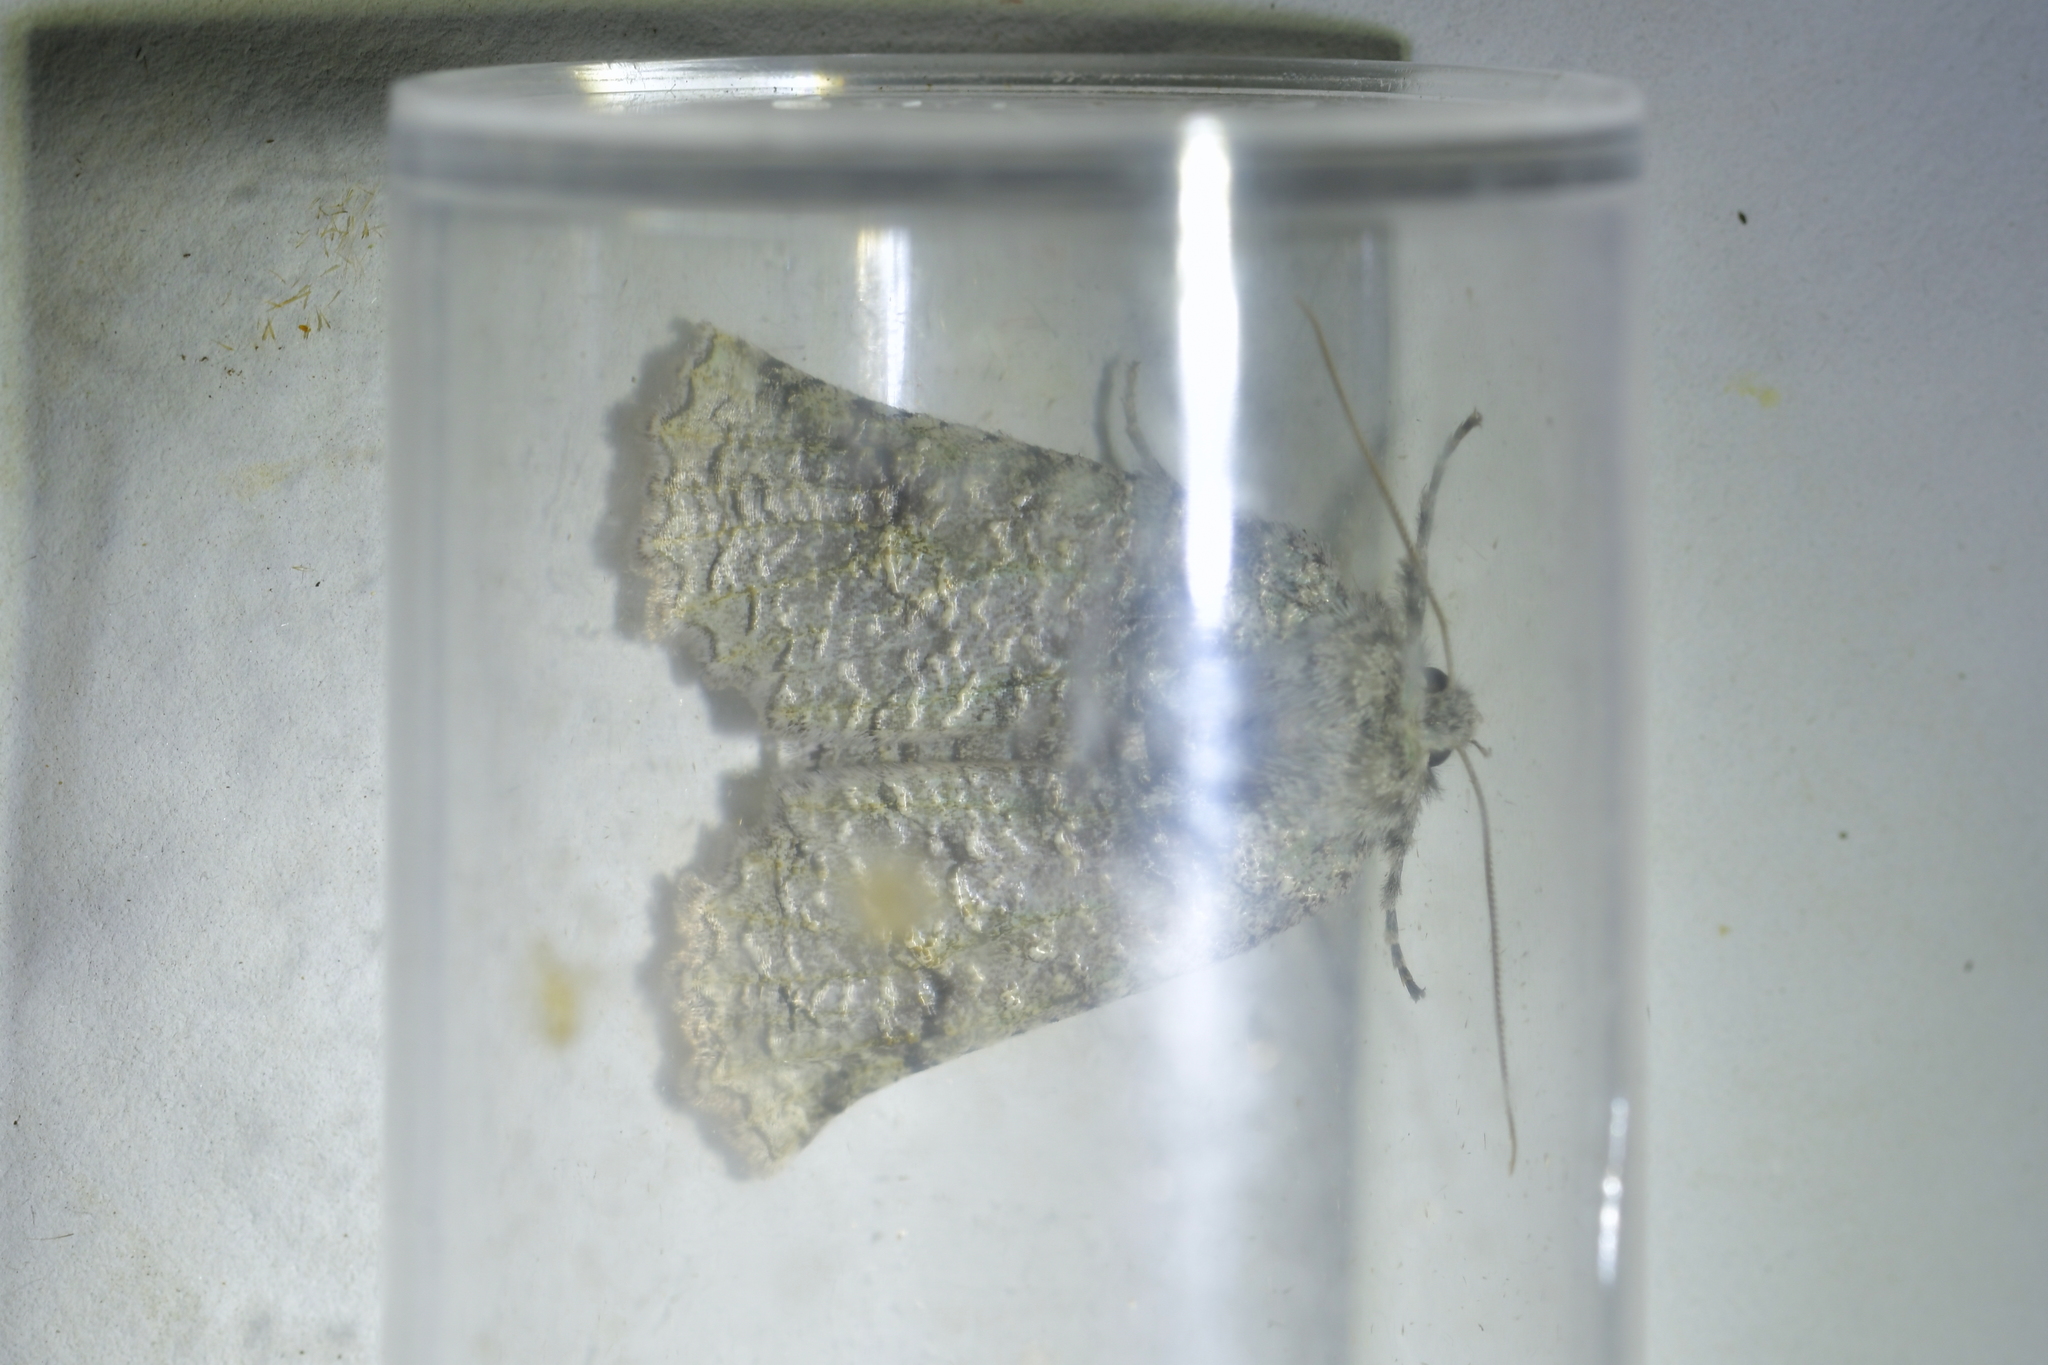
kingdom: Animalia
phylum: Arthropoda
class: Insecta
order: Lepidoptera
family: Geometridae
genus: Declana
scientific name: Declana floccosa
